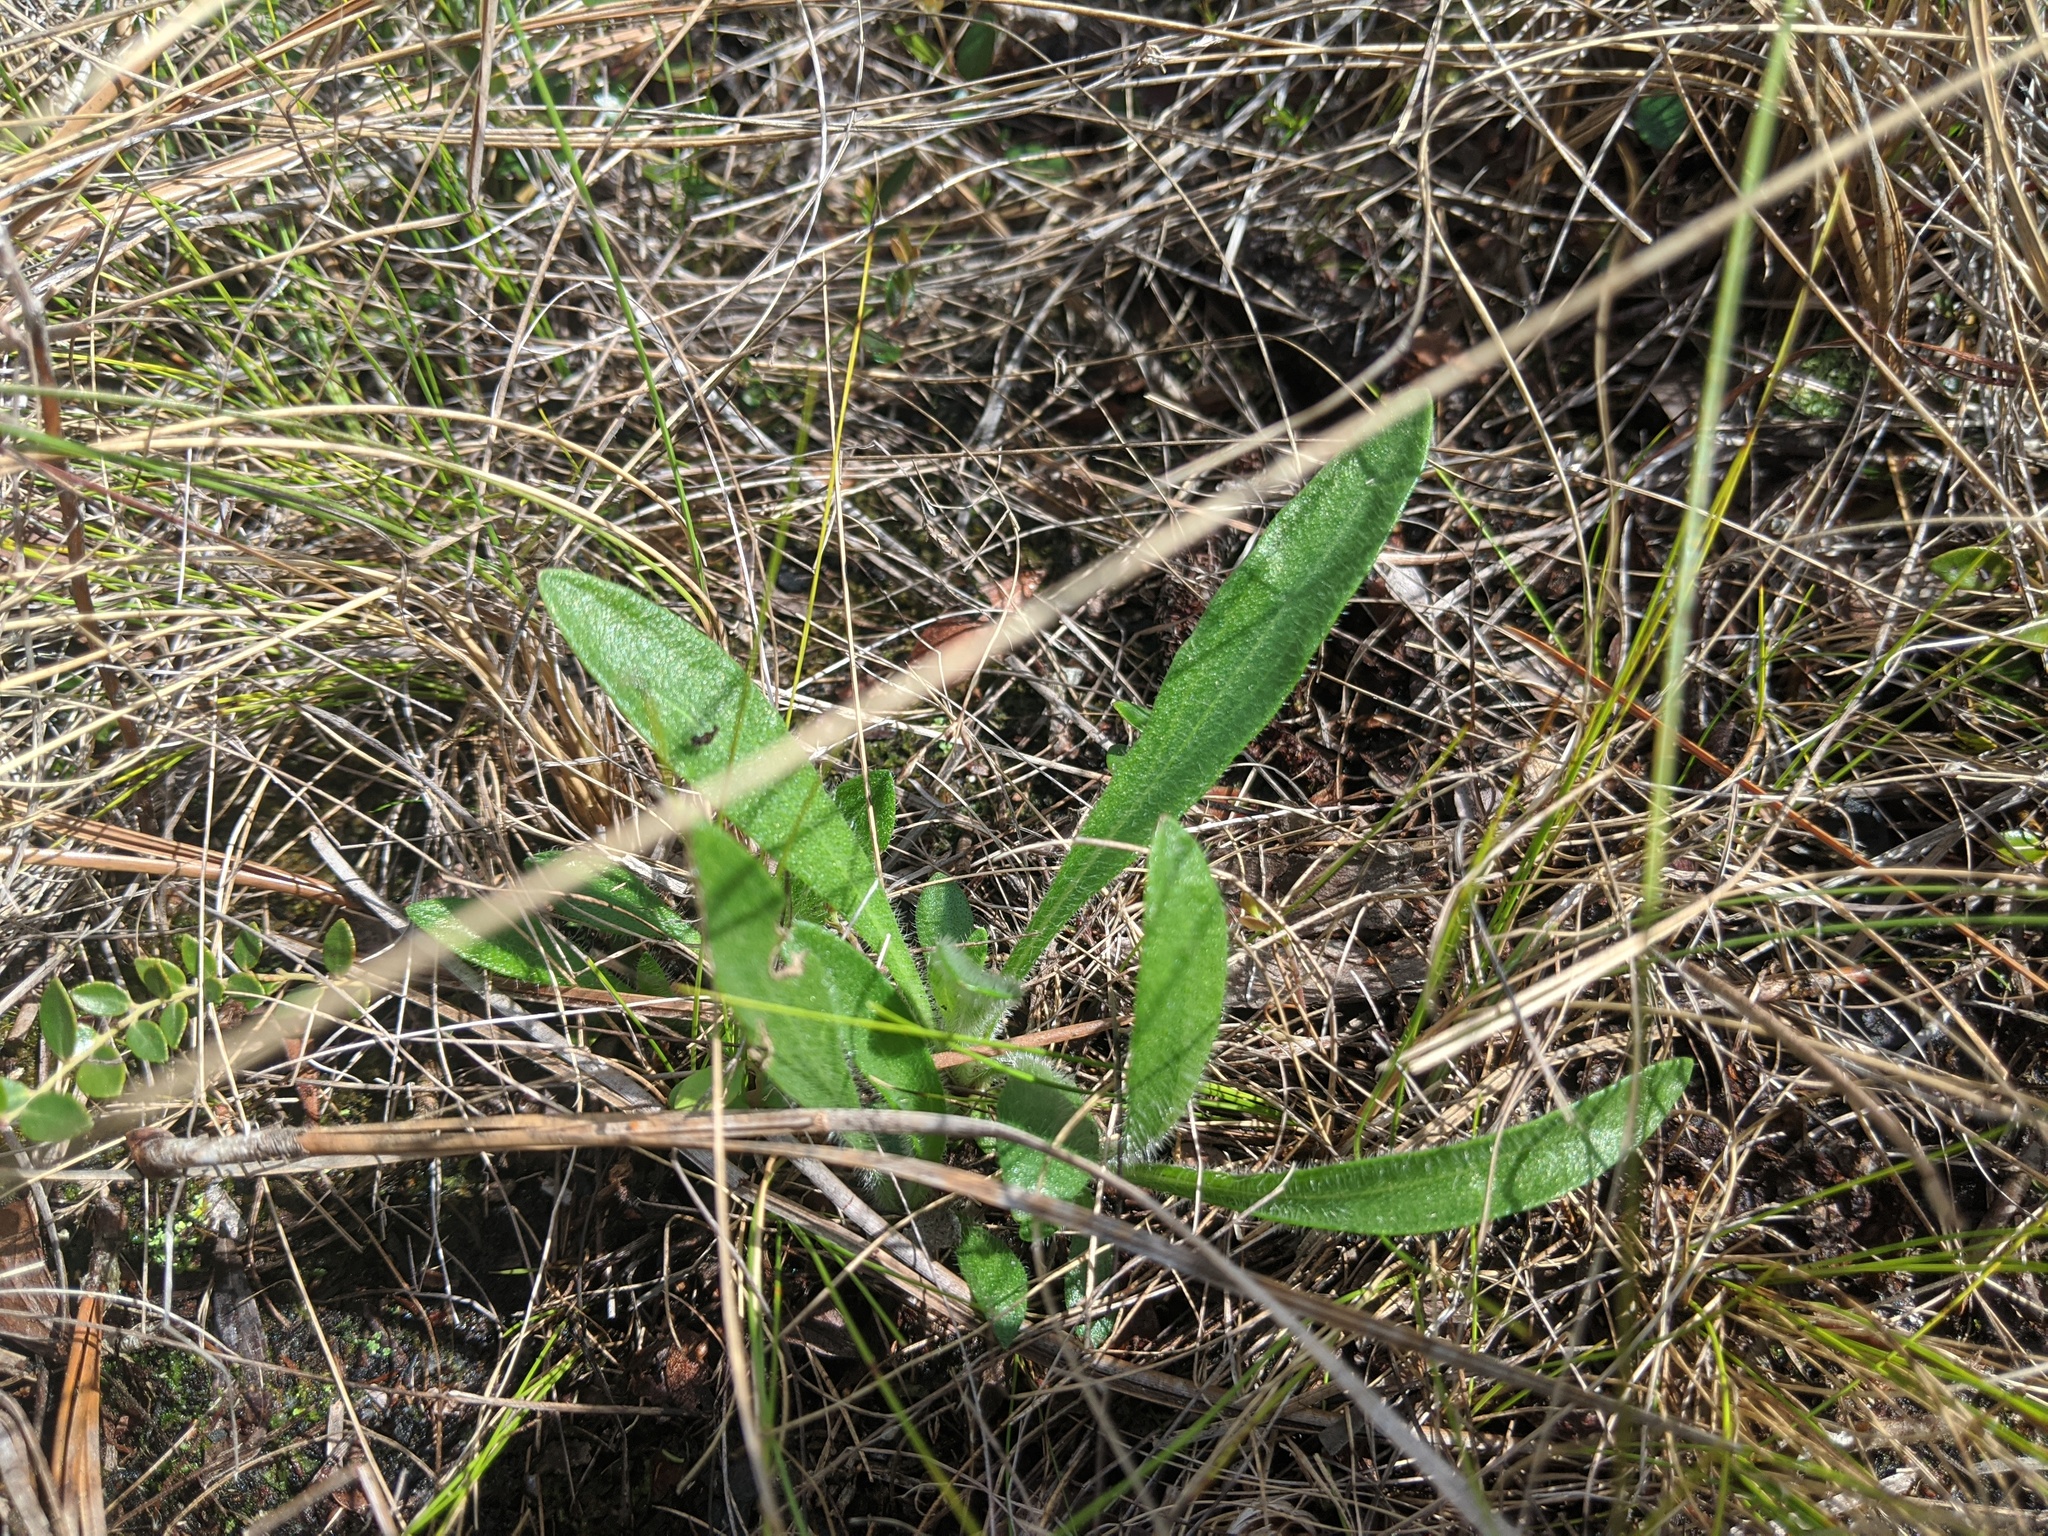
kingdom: Plantae
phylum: Tracheophyta
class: Magnoliopsida
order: Asterales
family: Asteraceae
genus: Carphephorus
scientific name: Carphephorus tomentosus
